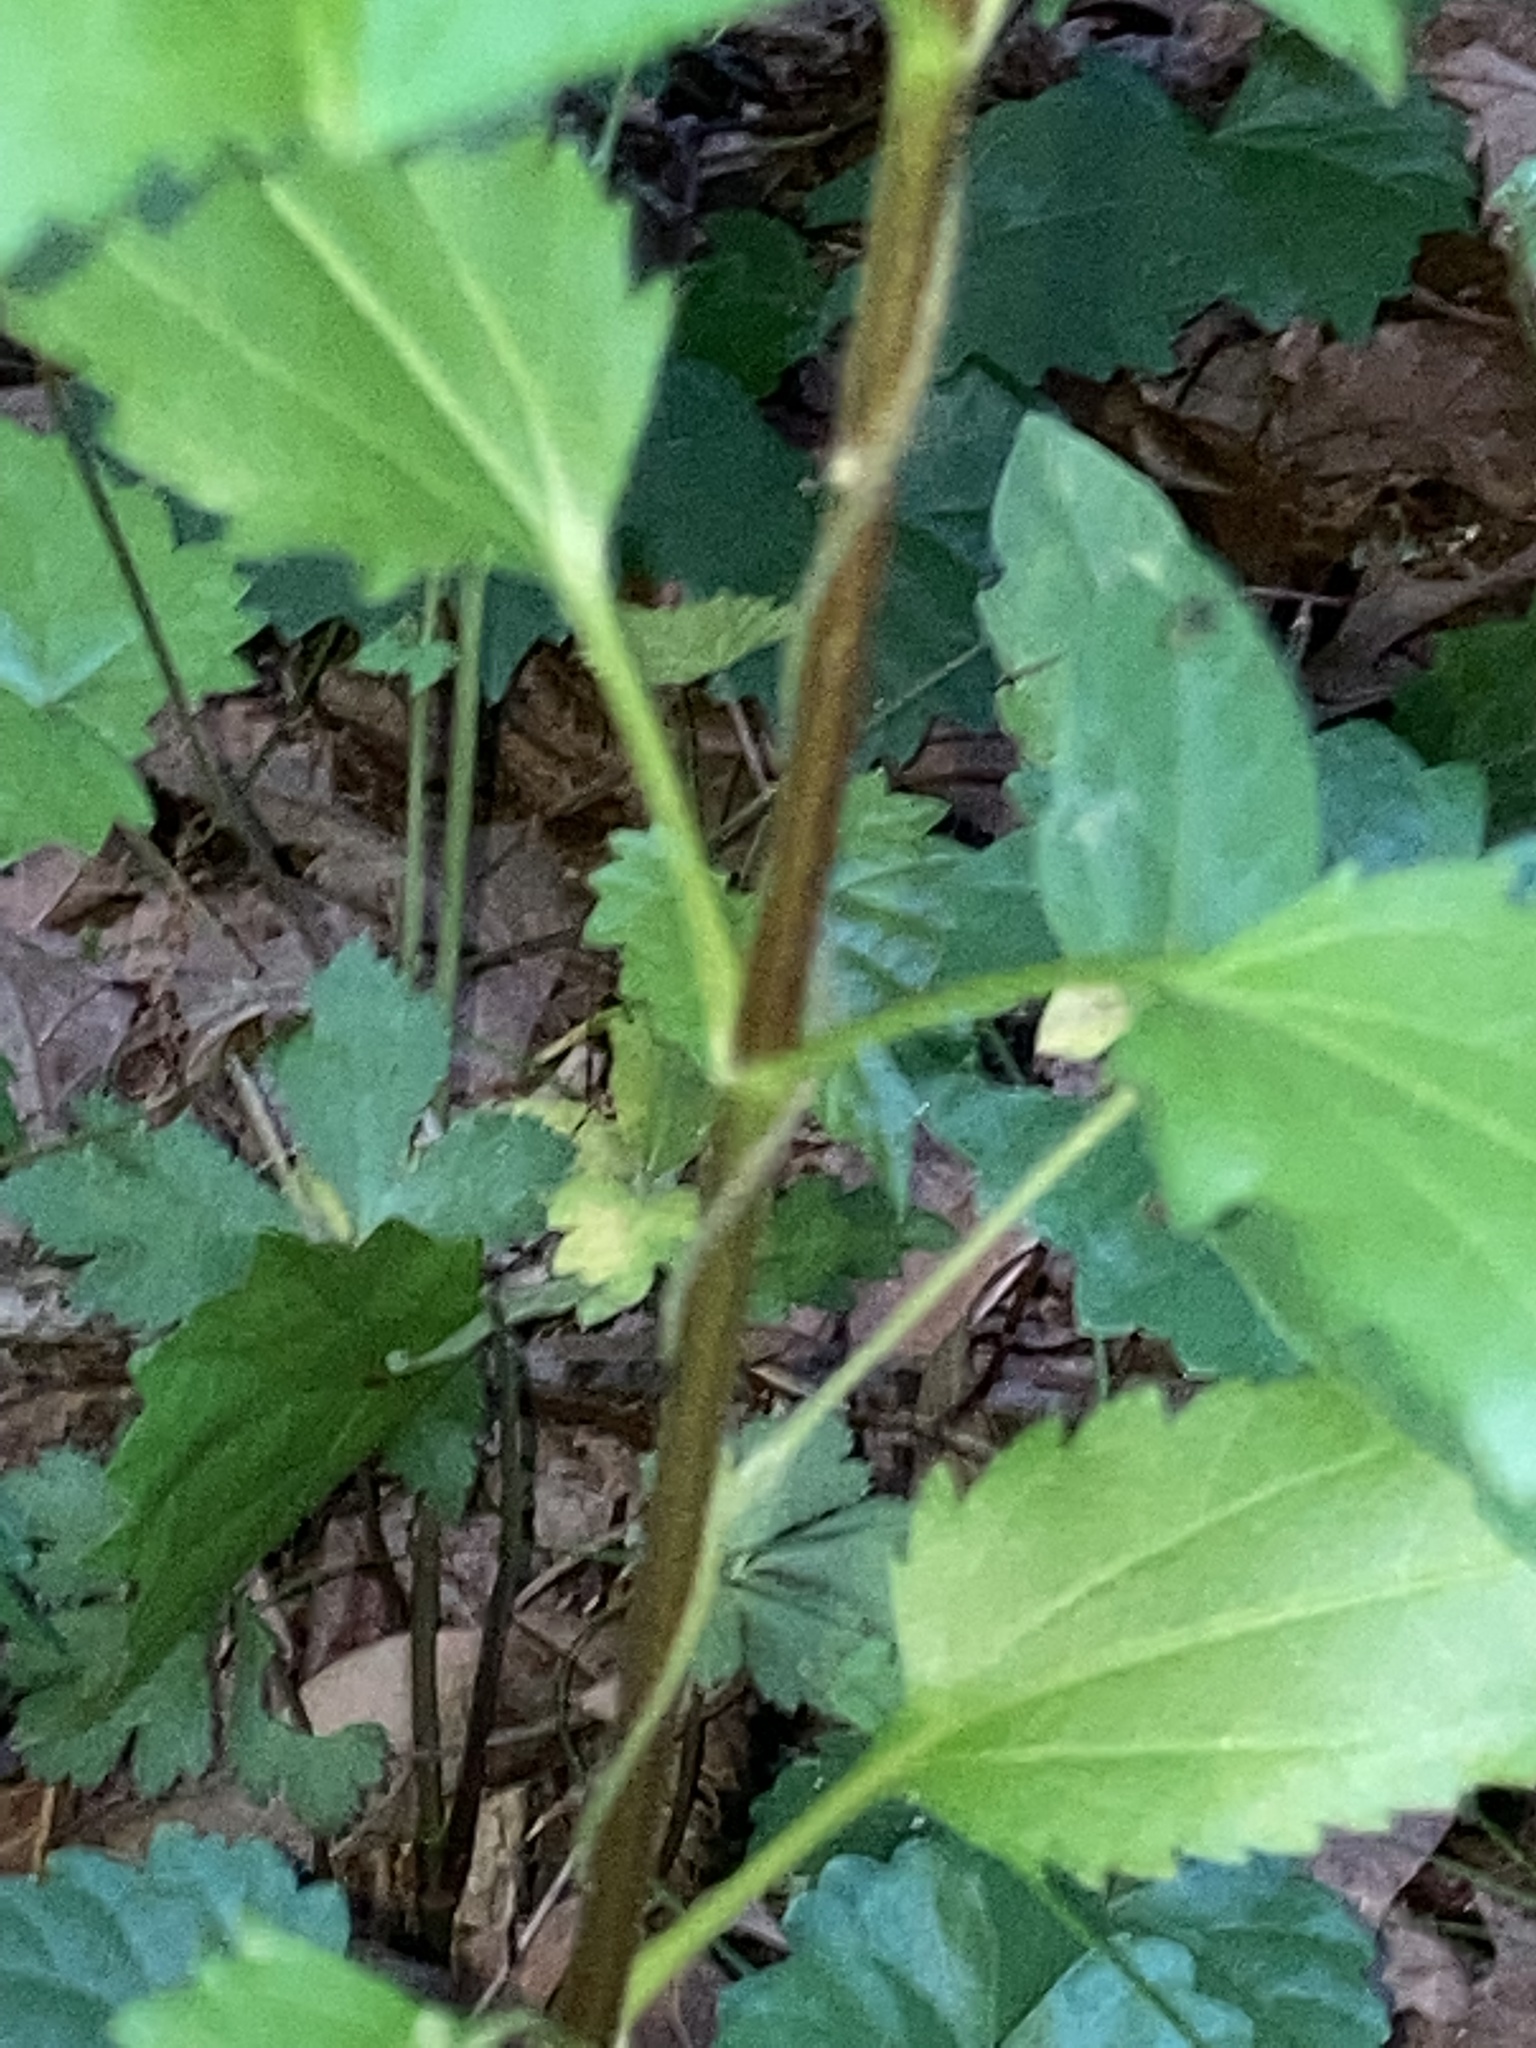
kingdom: Plantae
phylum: Tracheophyta
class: Magnoliopsida
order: Asterales
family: Asteraceae
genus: Eupatorium
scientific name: Eupatorium serotinum
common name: Late boneset
